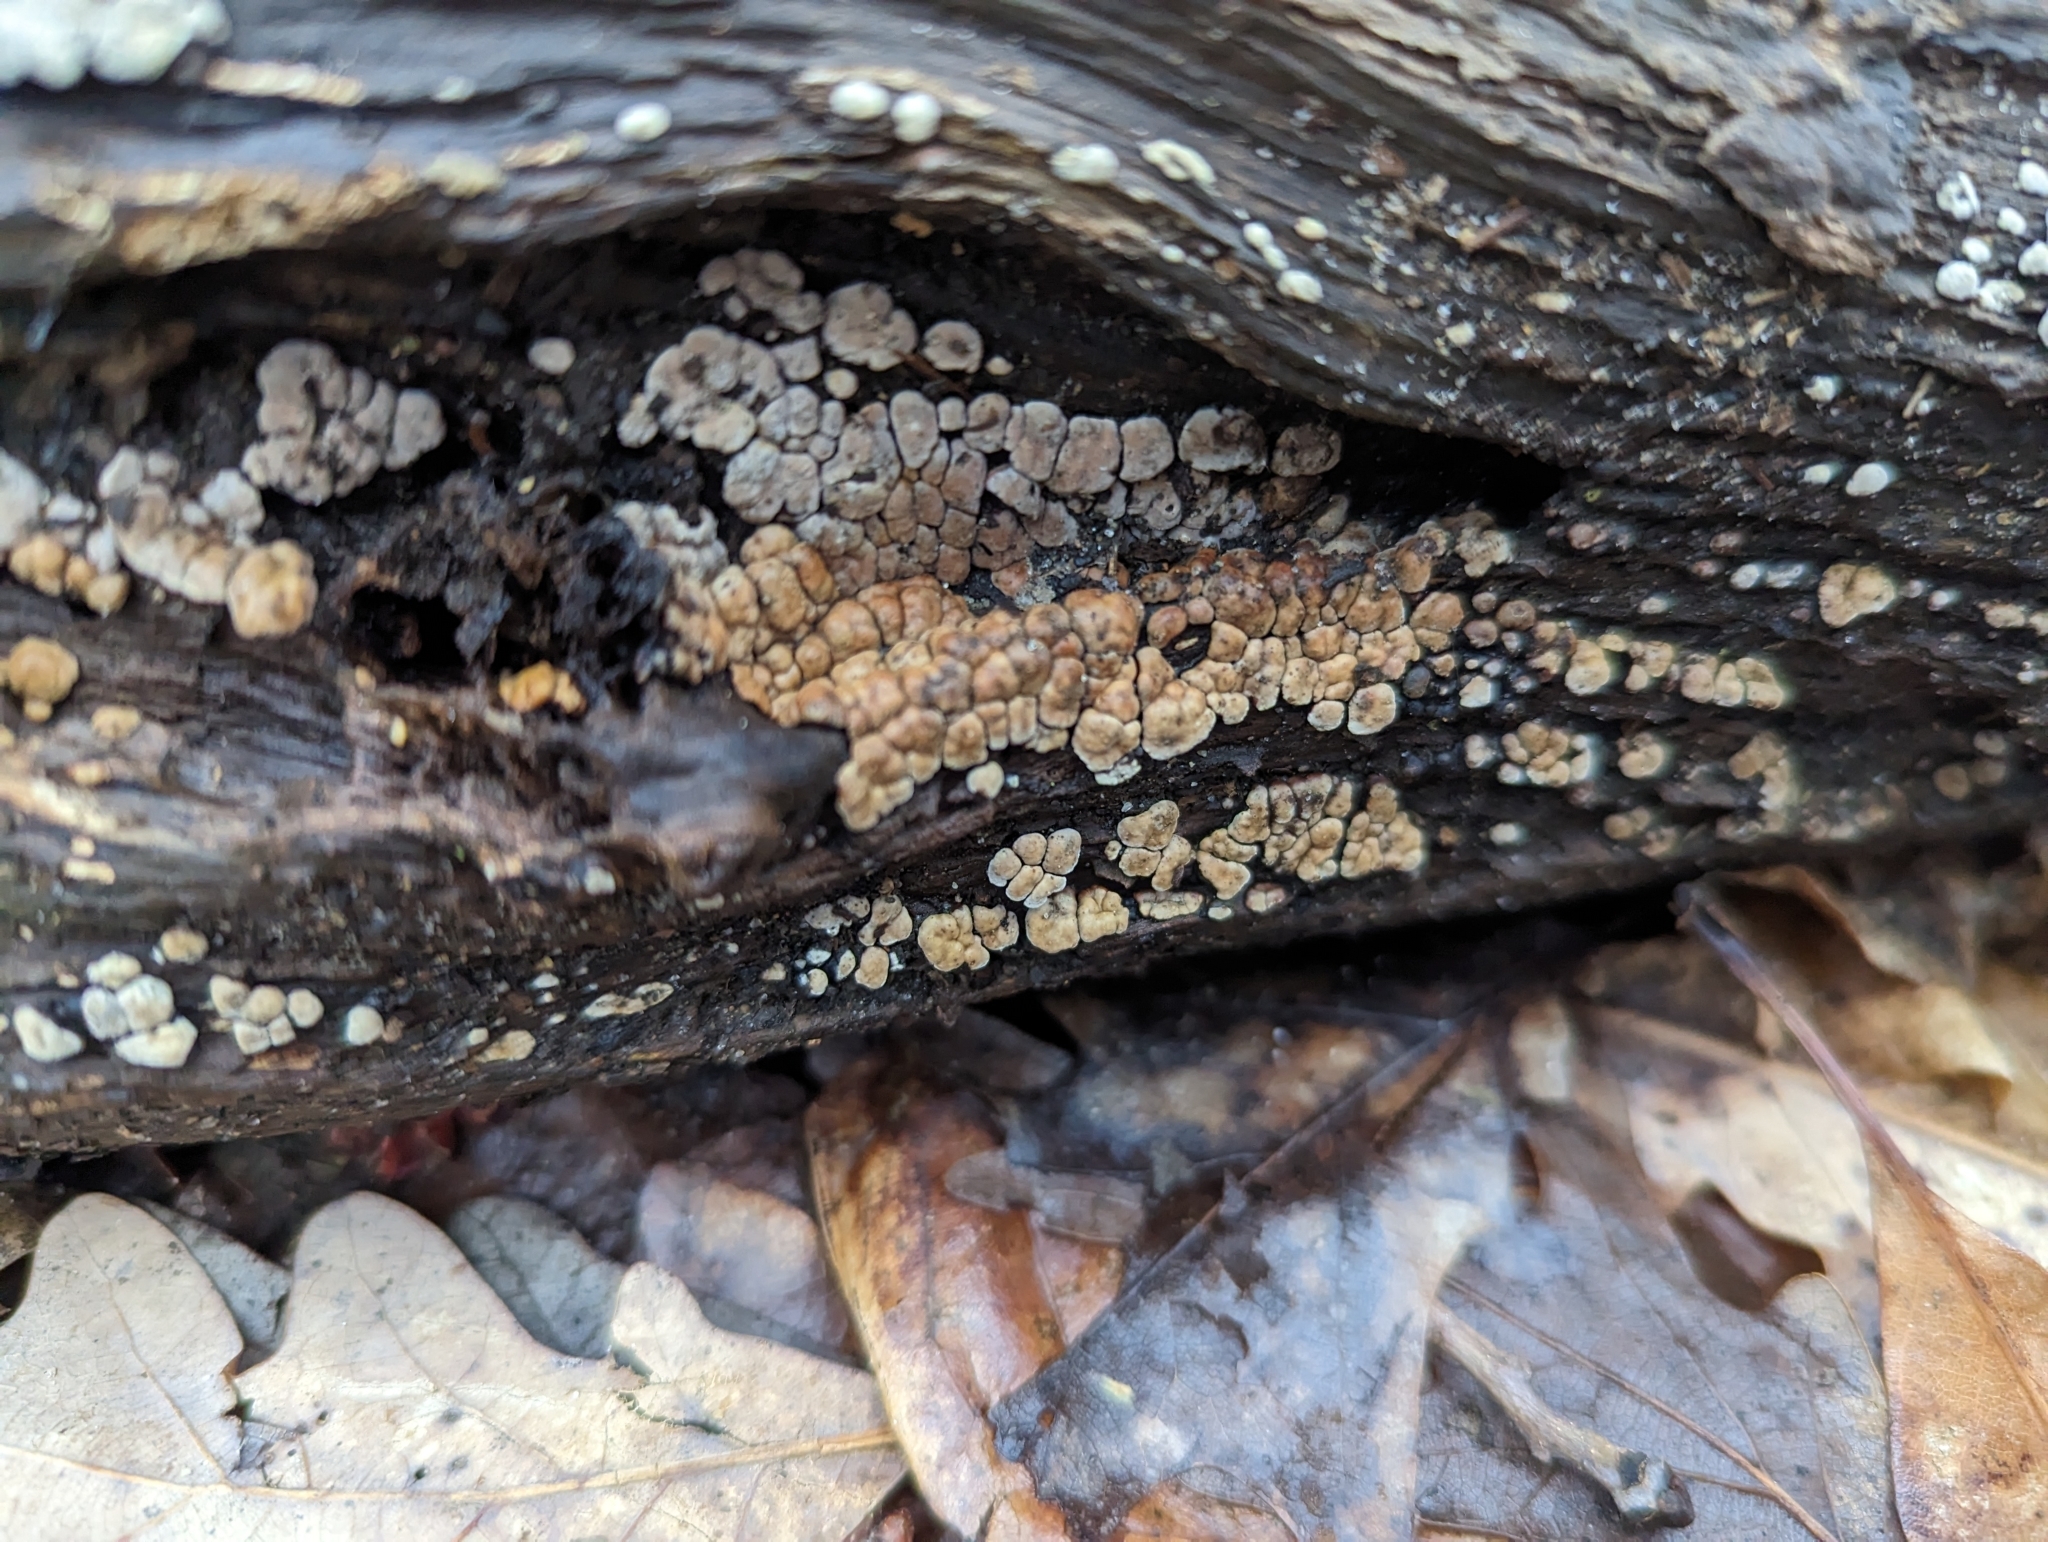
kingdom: Fungi
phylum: Basidiomycota
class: Agaricomycetes
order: Russulales
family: Stereaceae
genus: Xylobolus
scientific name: Xylobolus frustulatus
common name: Ceramic parchment
